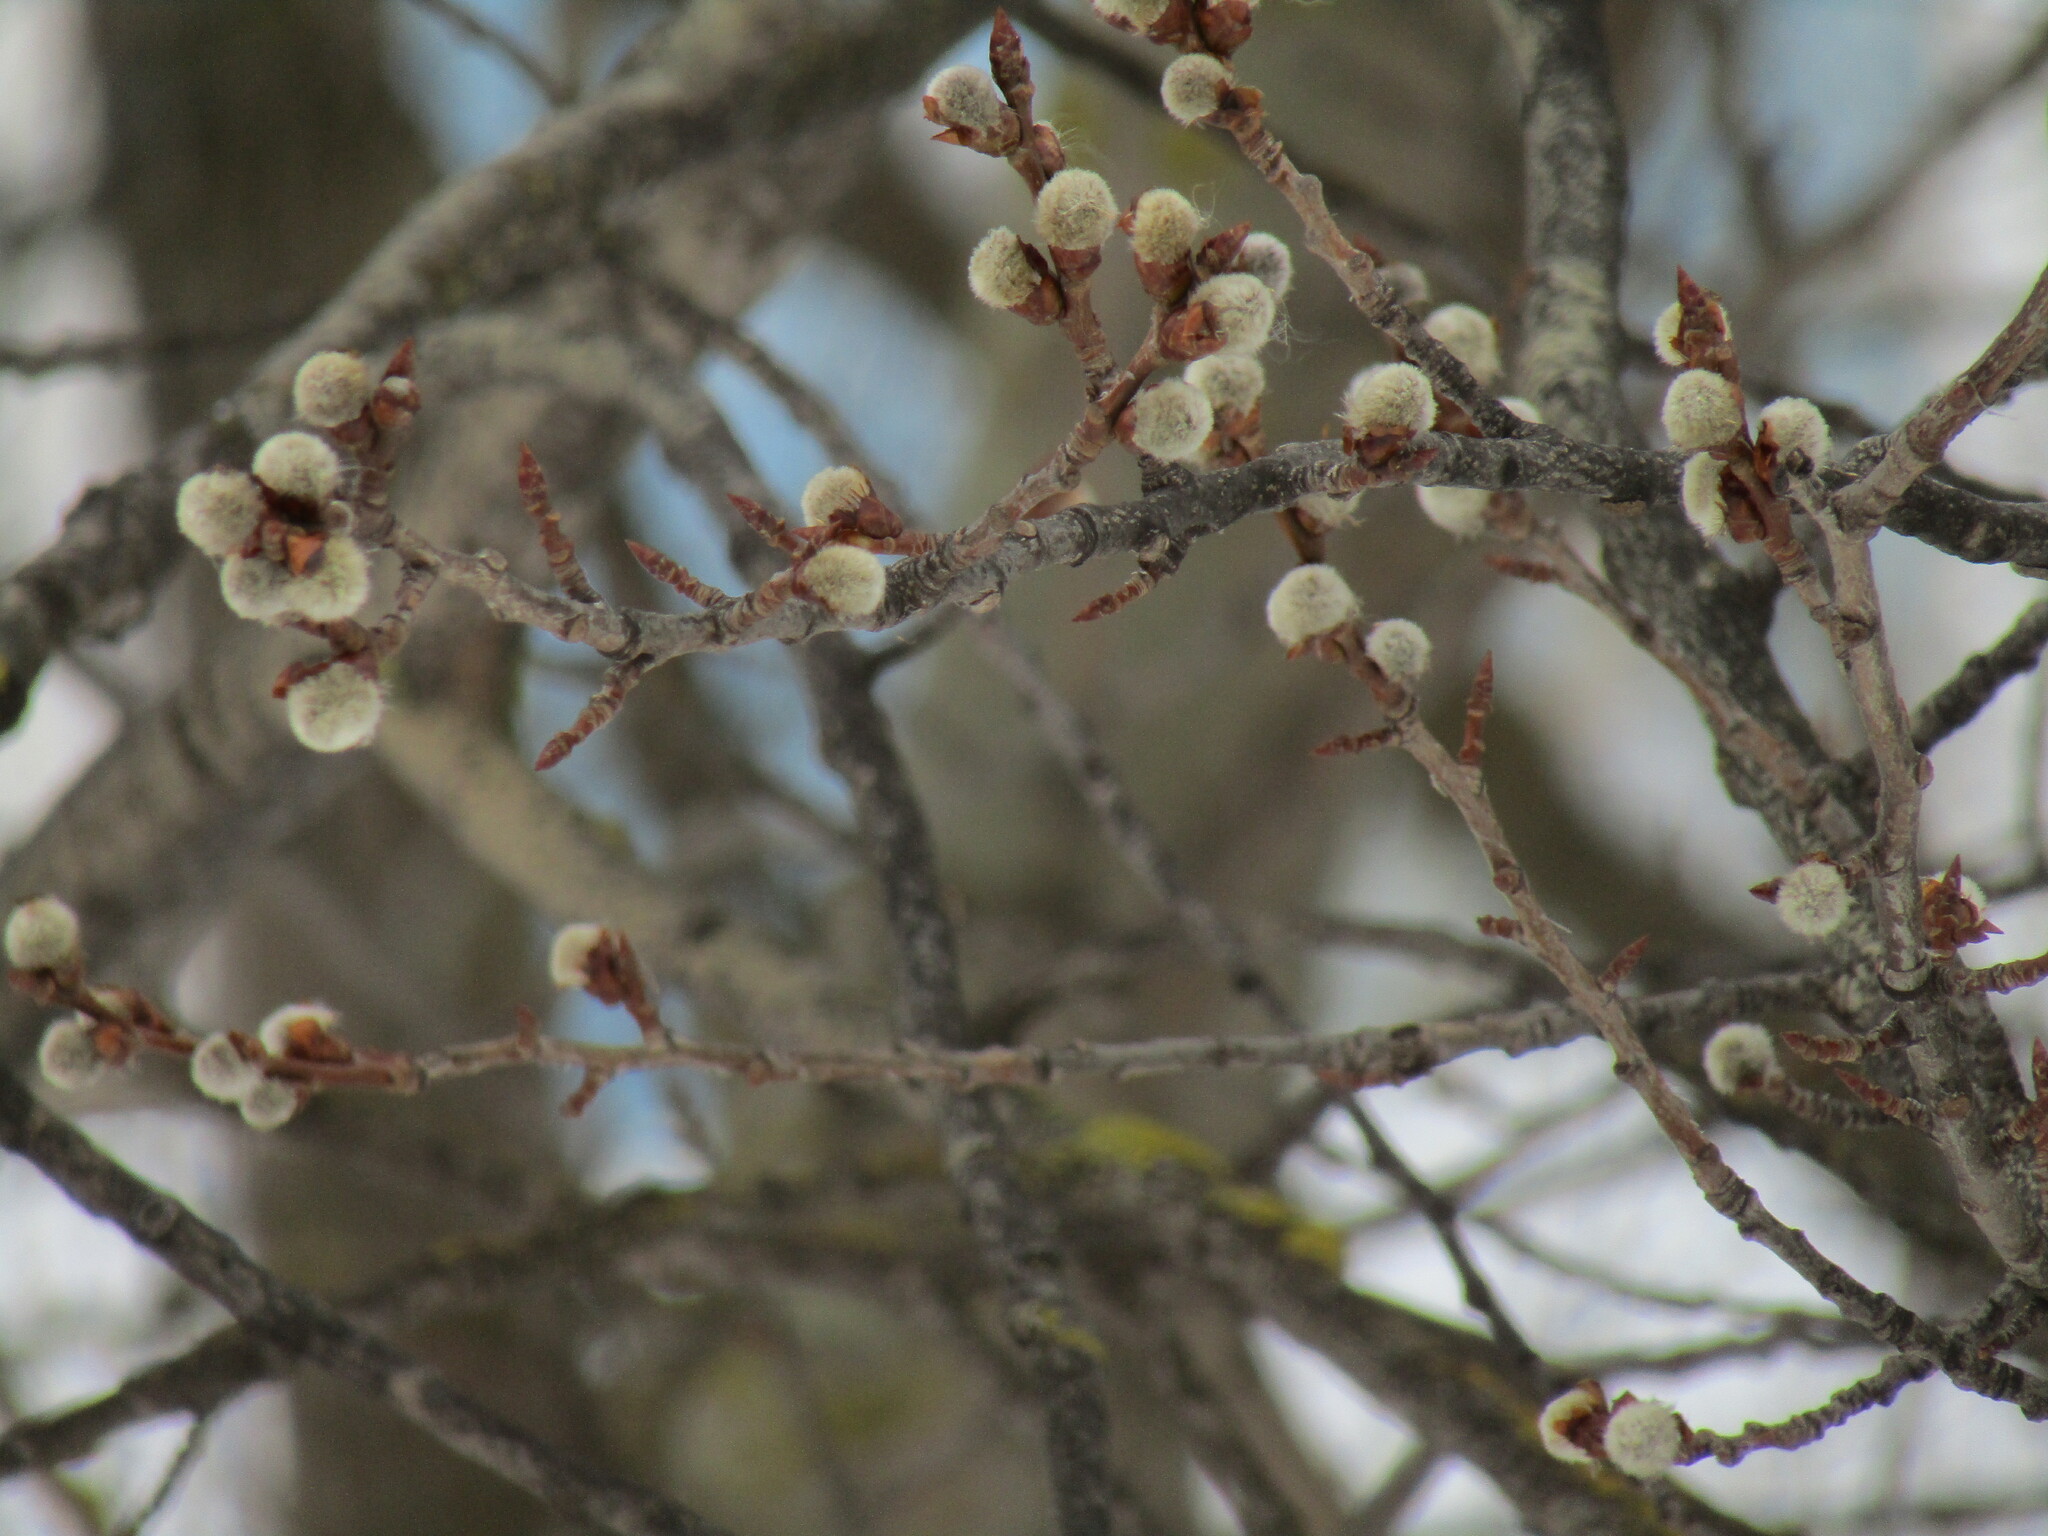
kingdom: Plantae
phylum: Tracheophyta
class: Magnoliopsida
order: Malpighiales
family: Salicaceae
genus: Populus
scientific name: Populus tremula
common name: European aspen
